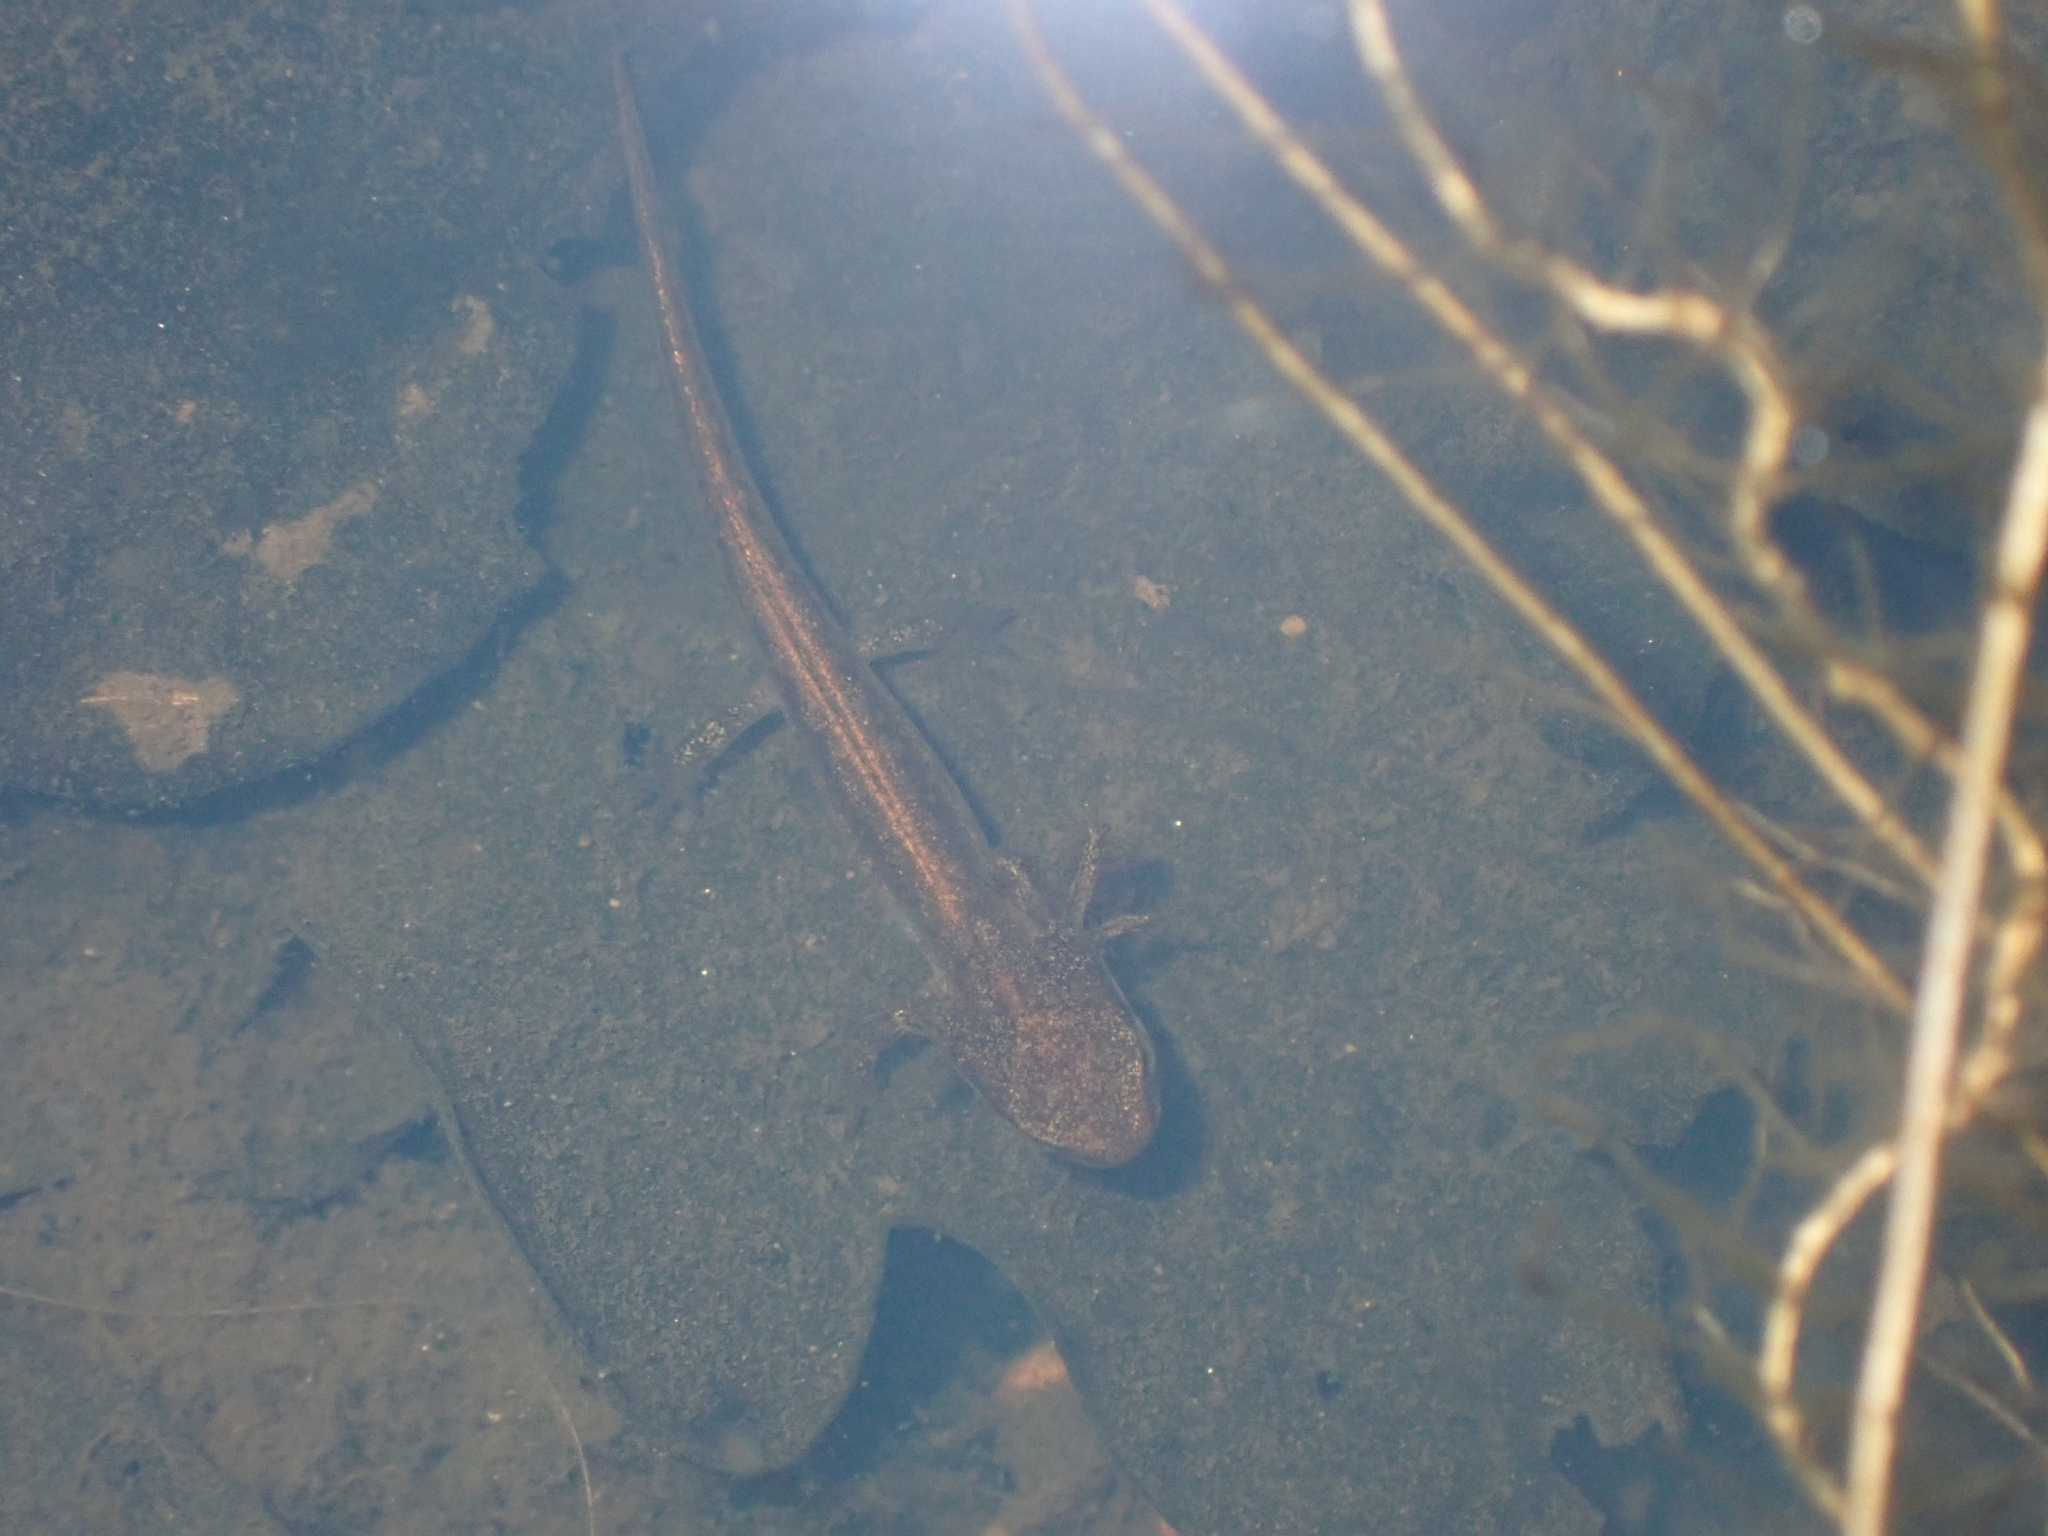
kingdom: Animalia
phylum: Chordata
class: Amphibia
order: Caudata
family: Salamandridae
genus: Lissotriton
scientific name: Lissotriton helveticus
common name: Palmate newt
